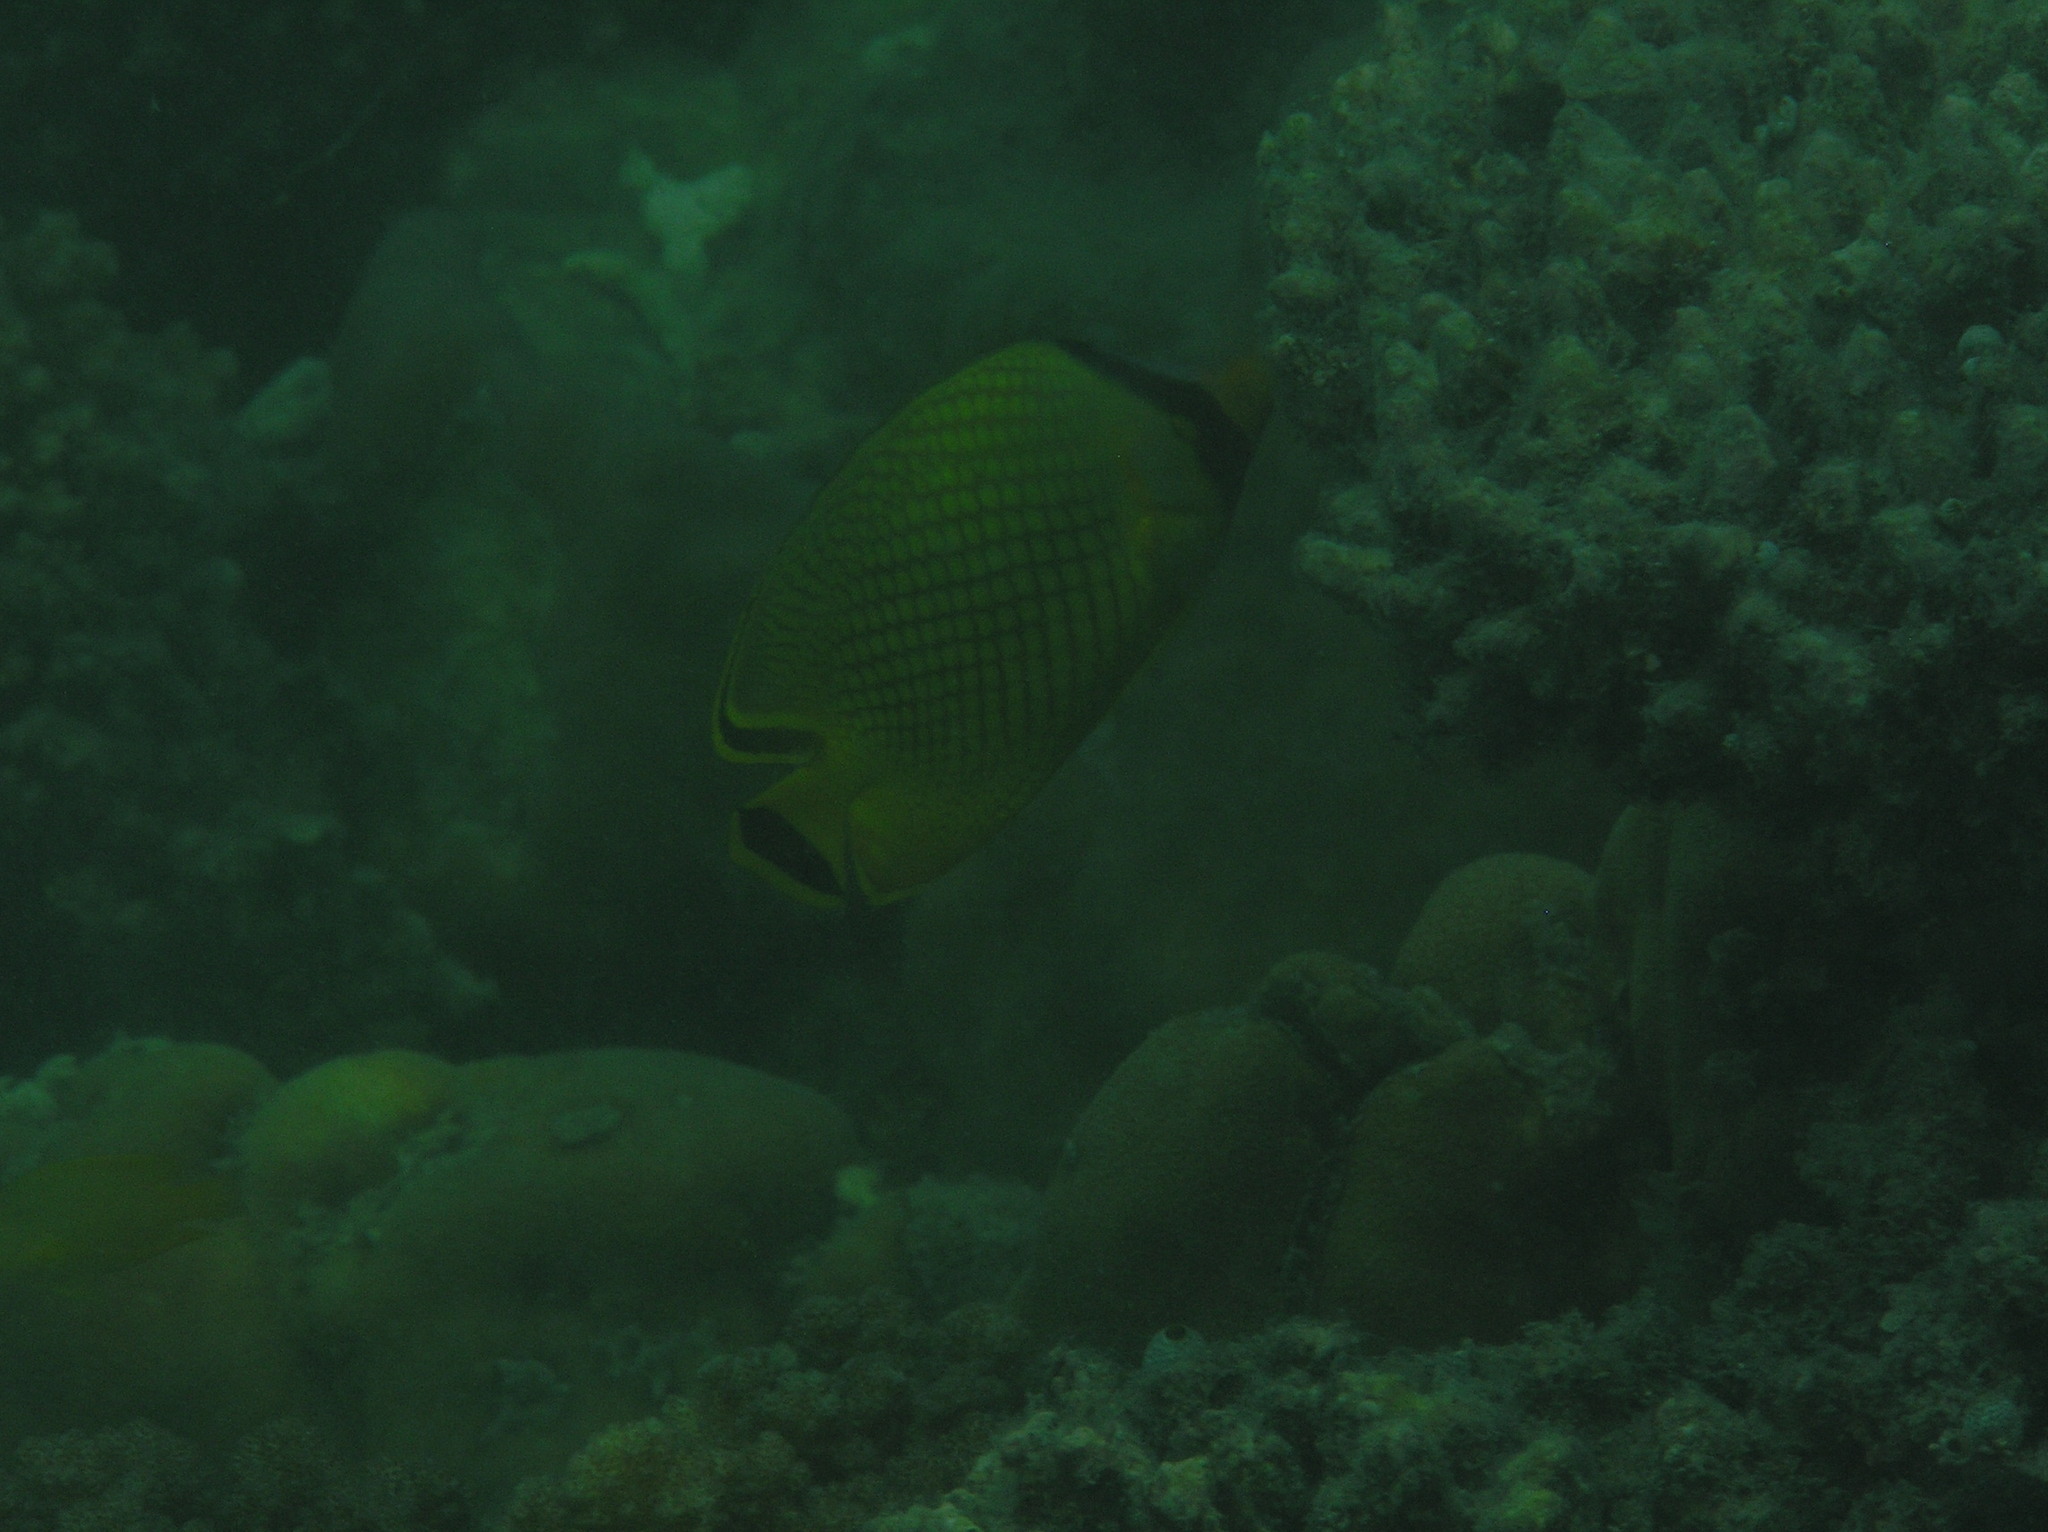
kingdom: Animalia
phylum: Chordata
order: Perciformes
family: Chaetodontidae
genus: Chaetodon
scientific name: Chaetodon rafflesii
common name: Latticed butterflyfish
